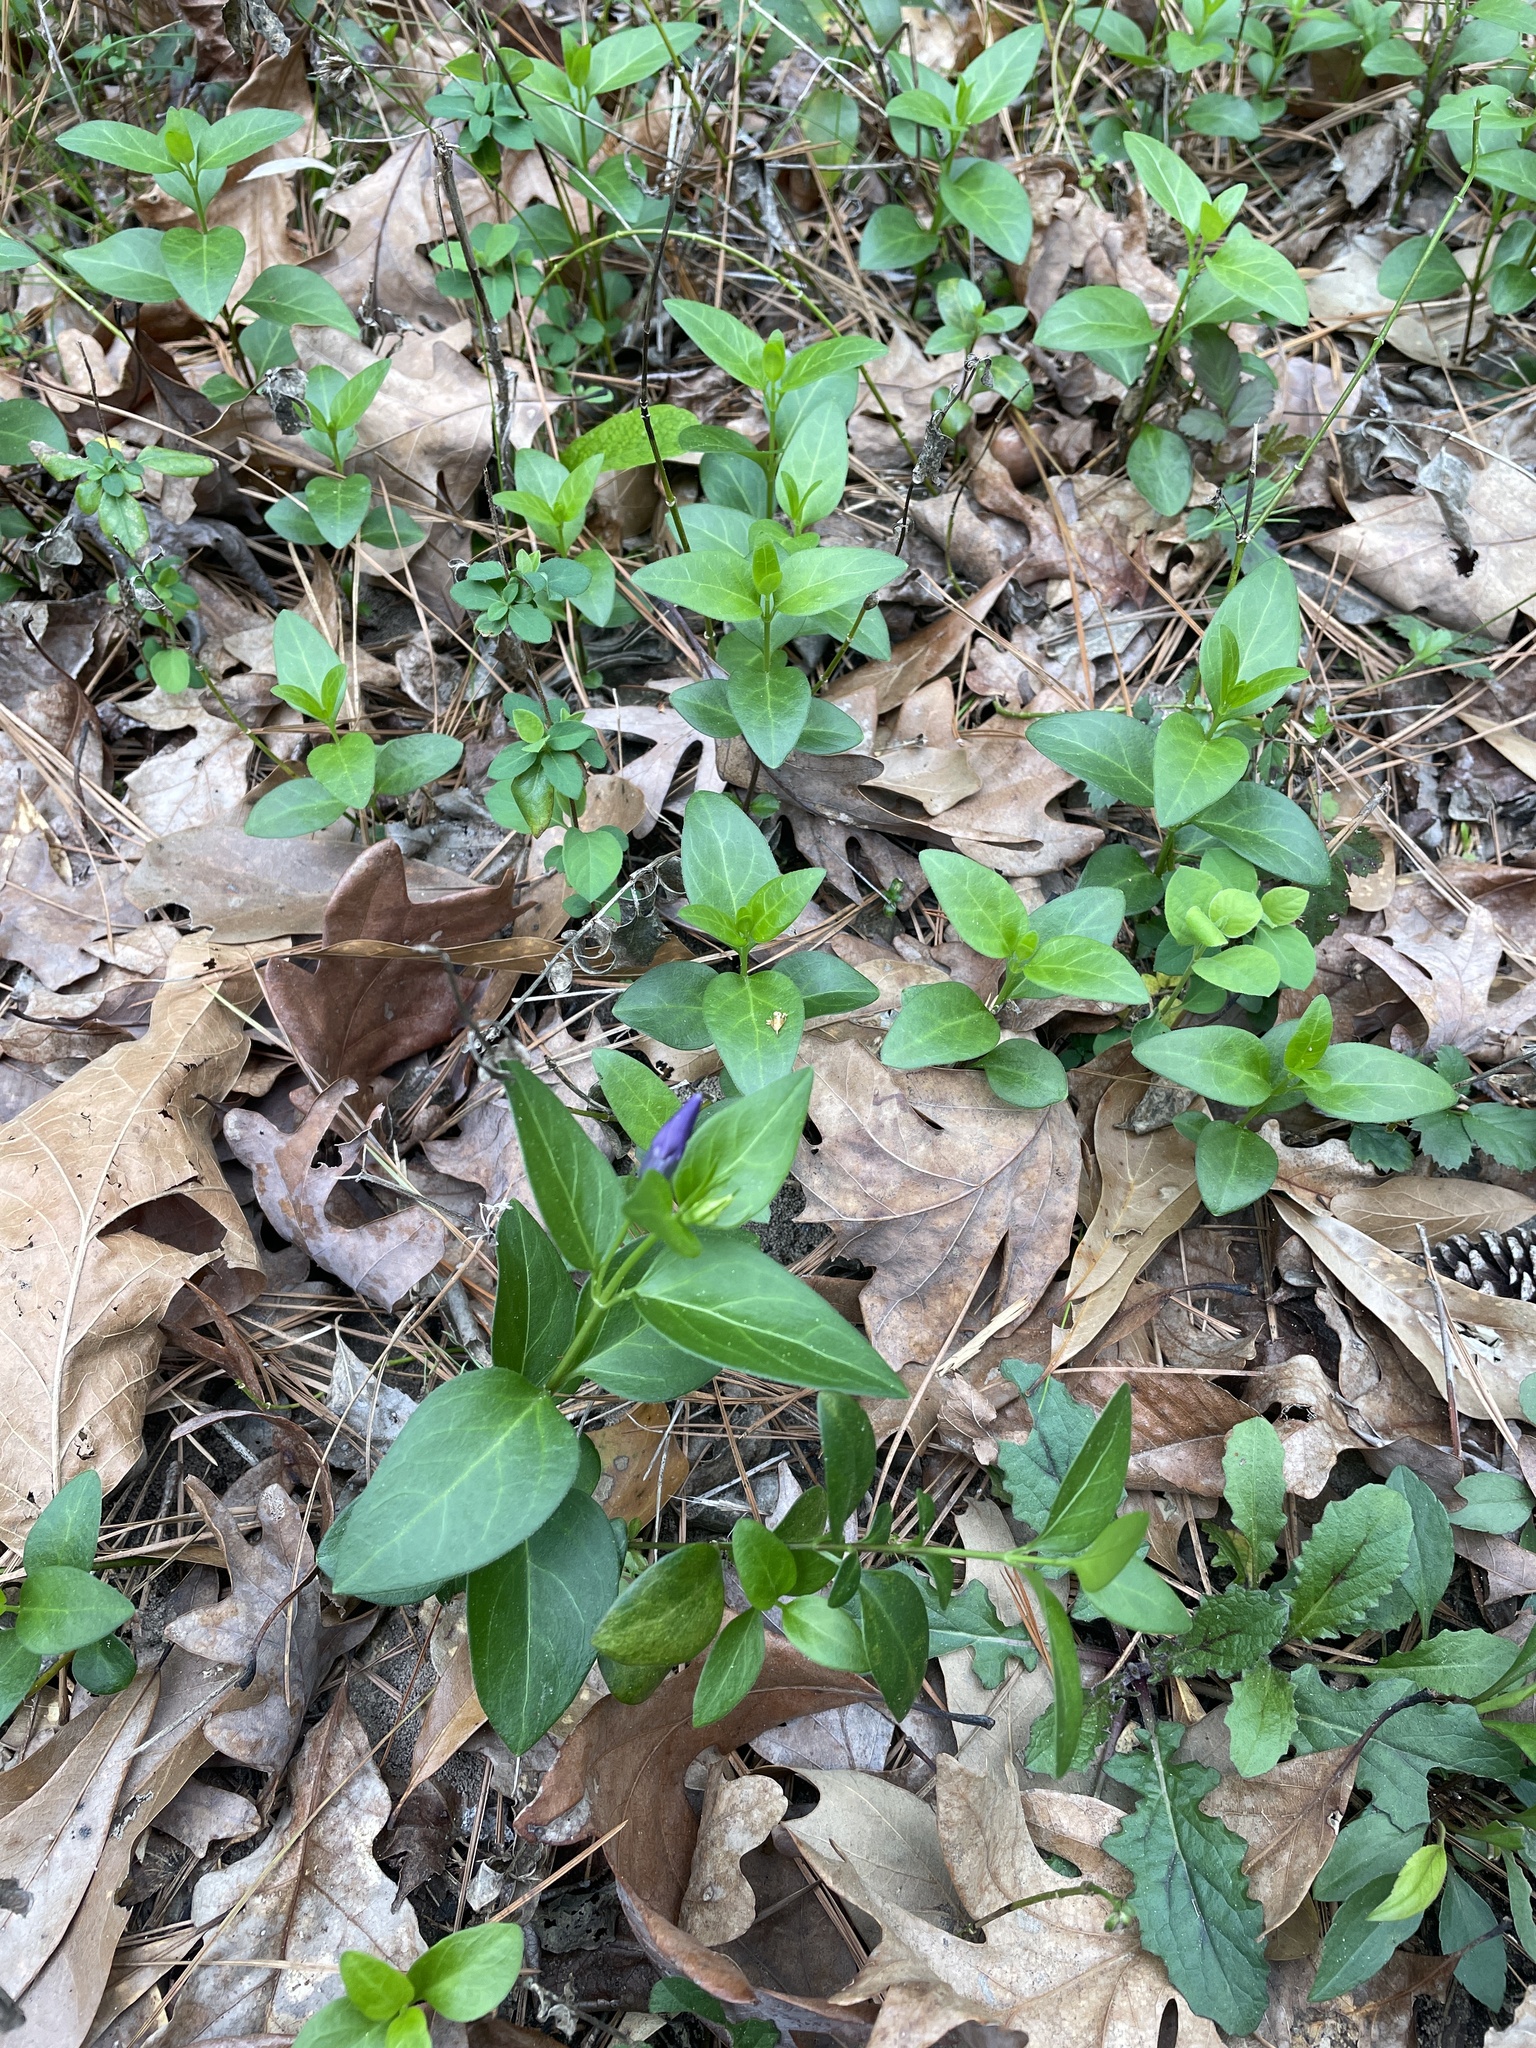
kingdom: Plantae
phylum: Tracheophyta
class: Magnoliopsida
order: Gentianales
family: Apocynaceae
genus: Vinca
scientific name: Vinca major
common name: Greater periwinkle
